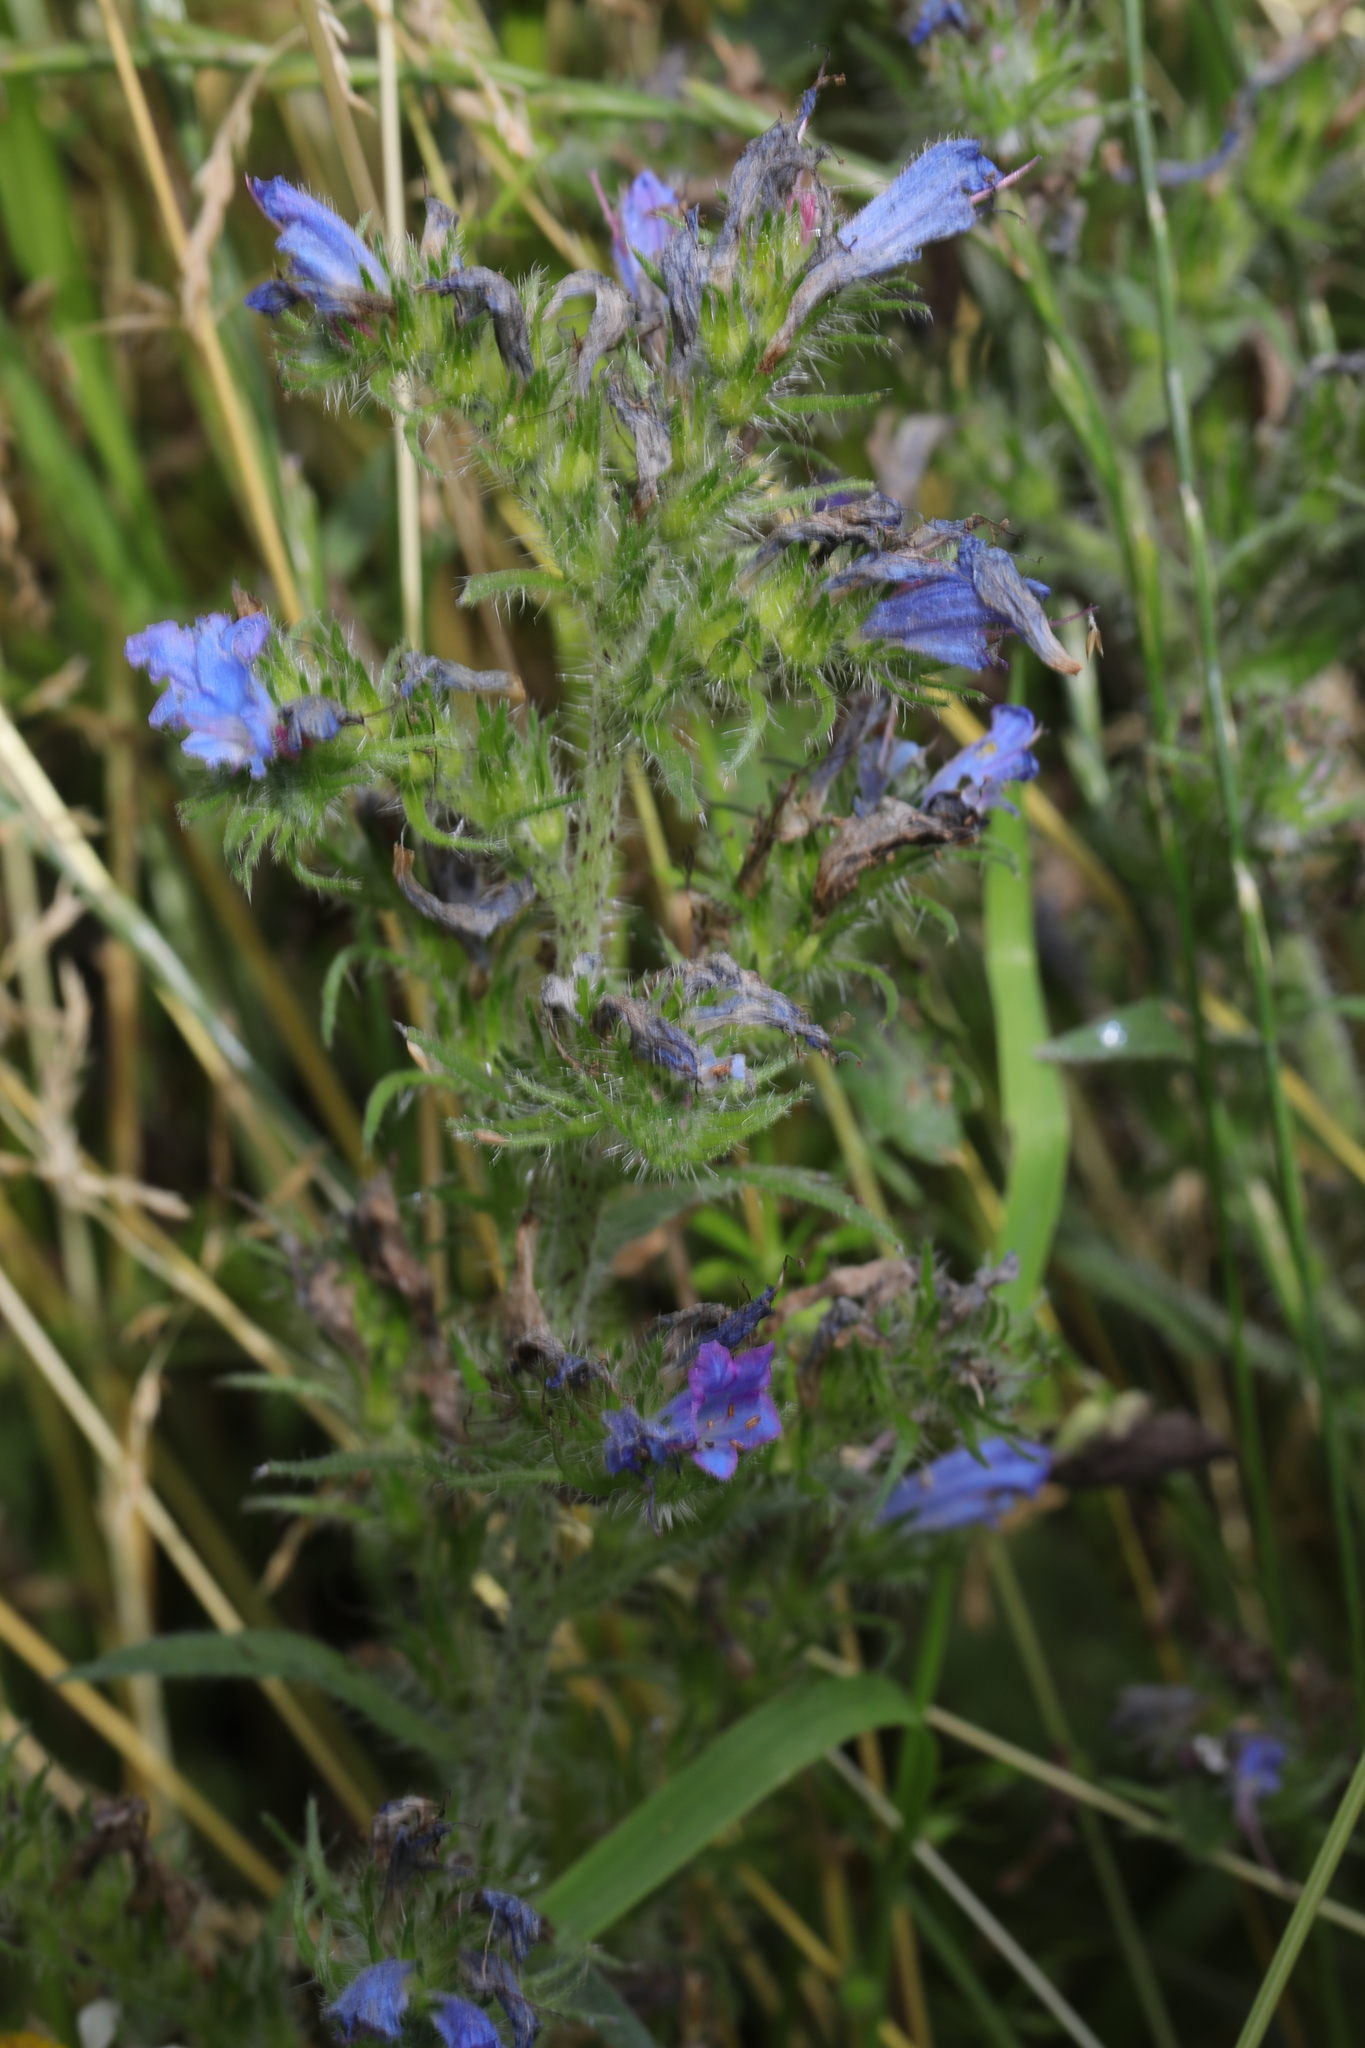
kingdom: Plantae
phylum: Tracheophyta
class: Magnoliopsida
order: Boraginales
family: Boraginaceae
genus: Echium
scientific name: Echium vulgare
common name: Common viper's bugloss
